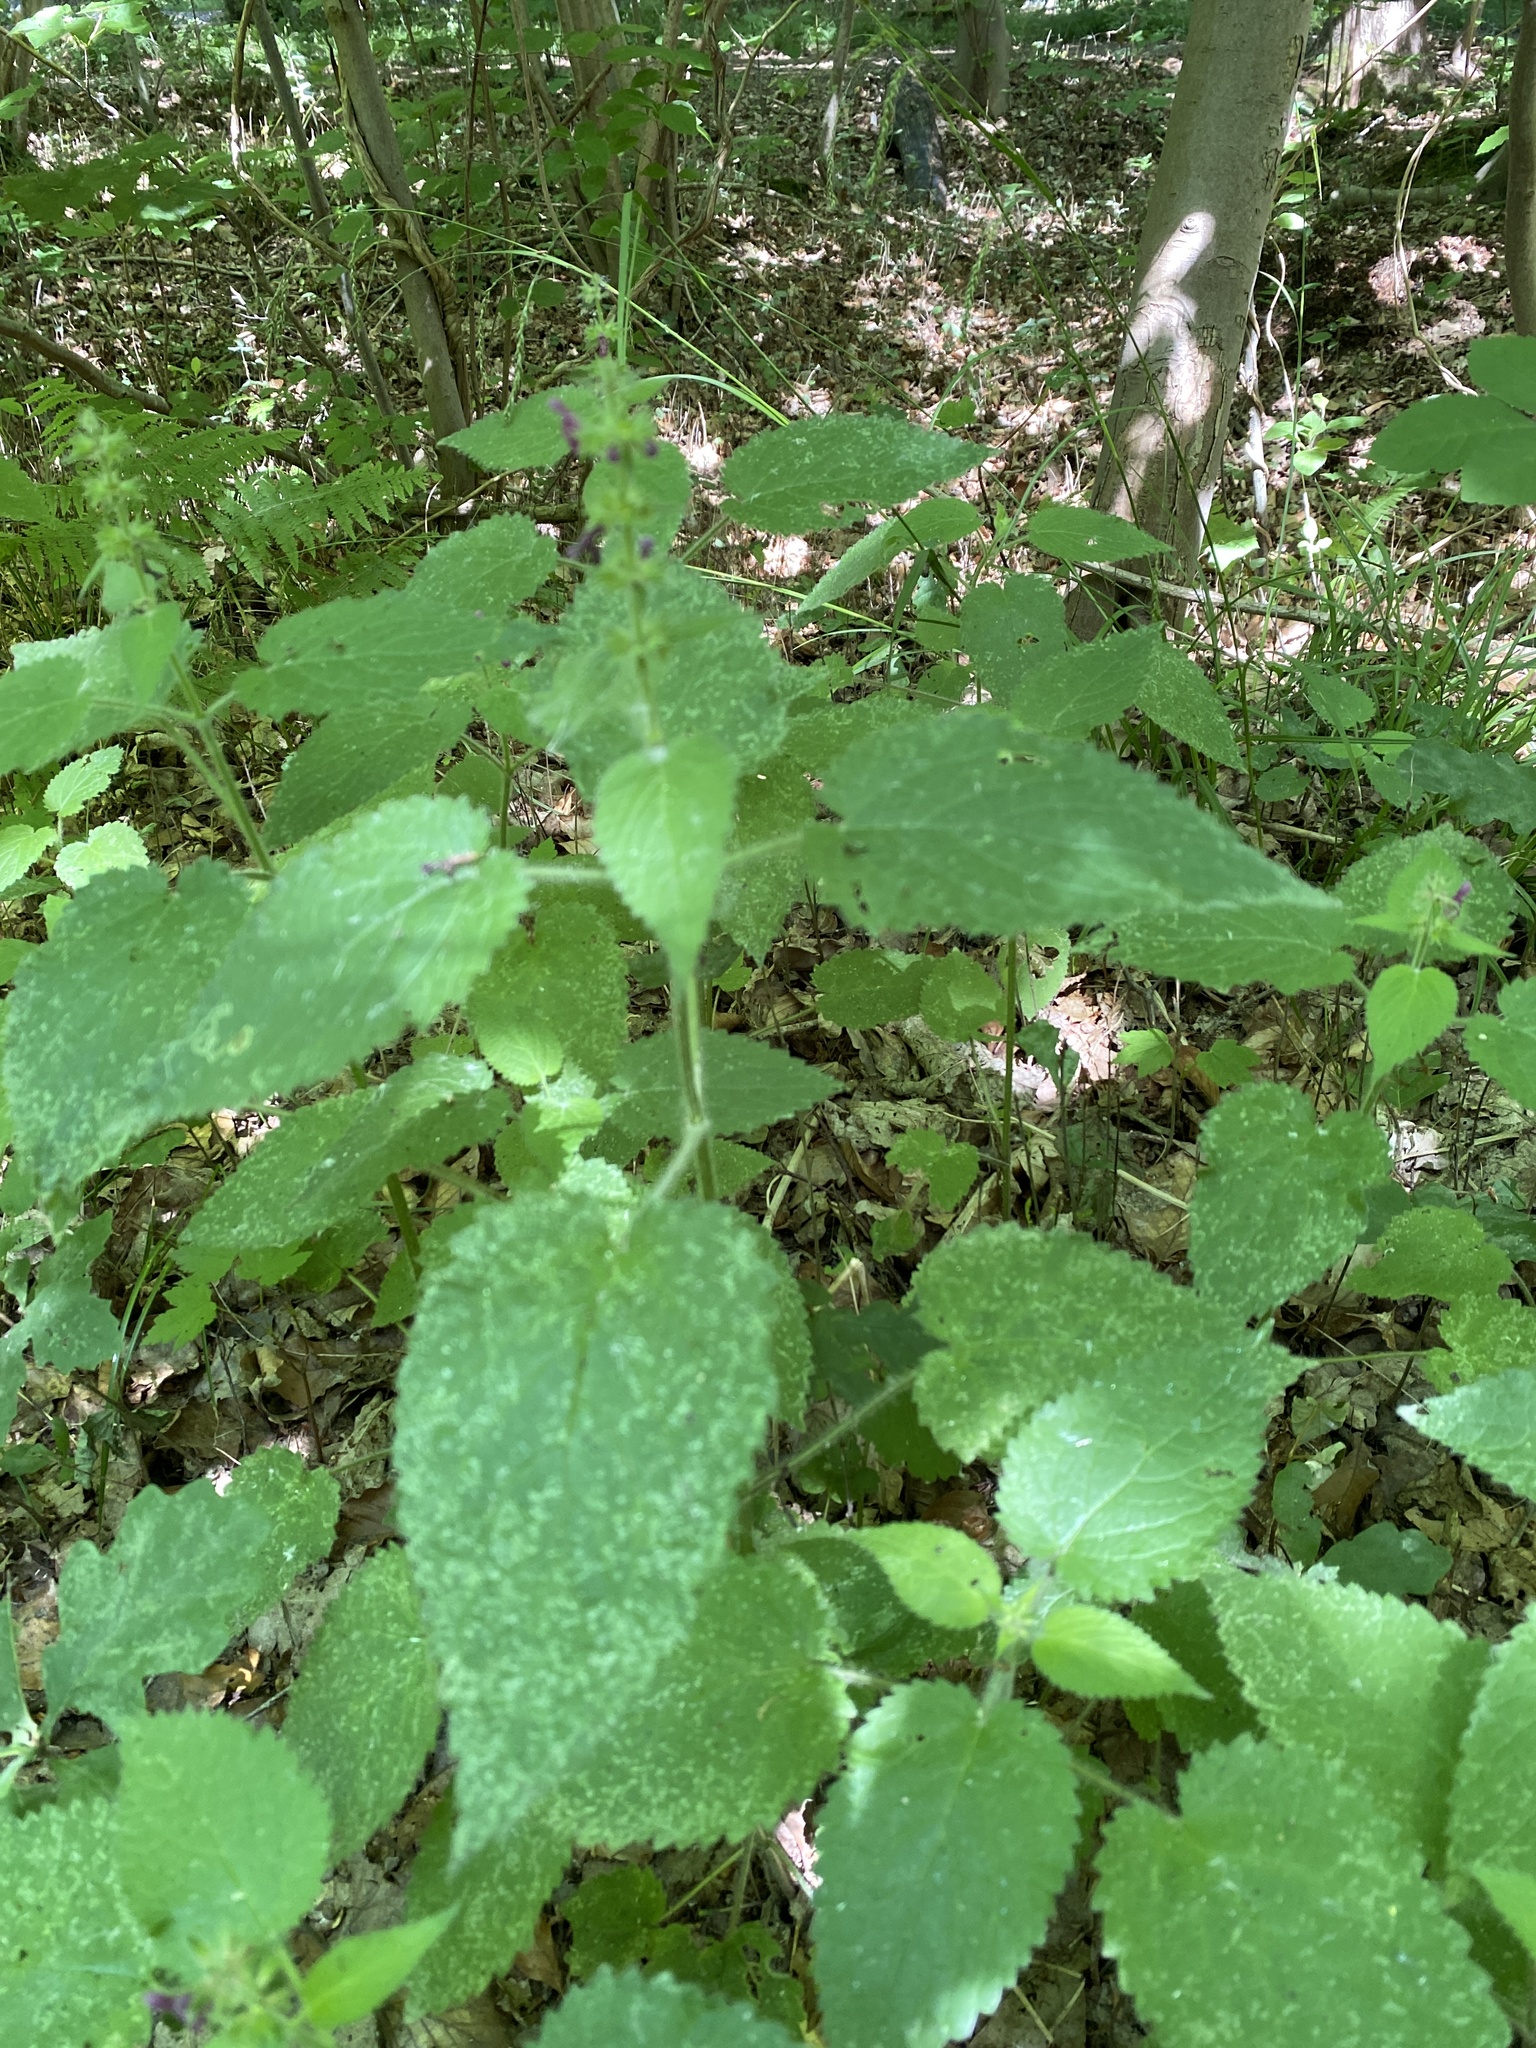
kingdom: Plantae
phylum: Tracheophyta
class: Magnoliopsida
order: Lamiales
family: Lamiaceae
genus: Stachys
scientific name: Stachys sylvatica
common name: Hedge woundwort
